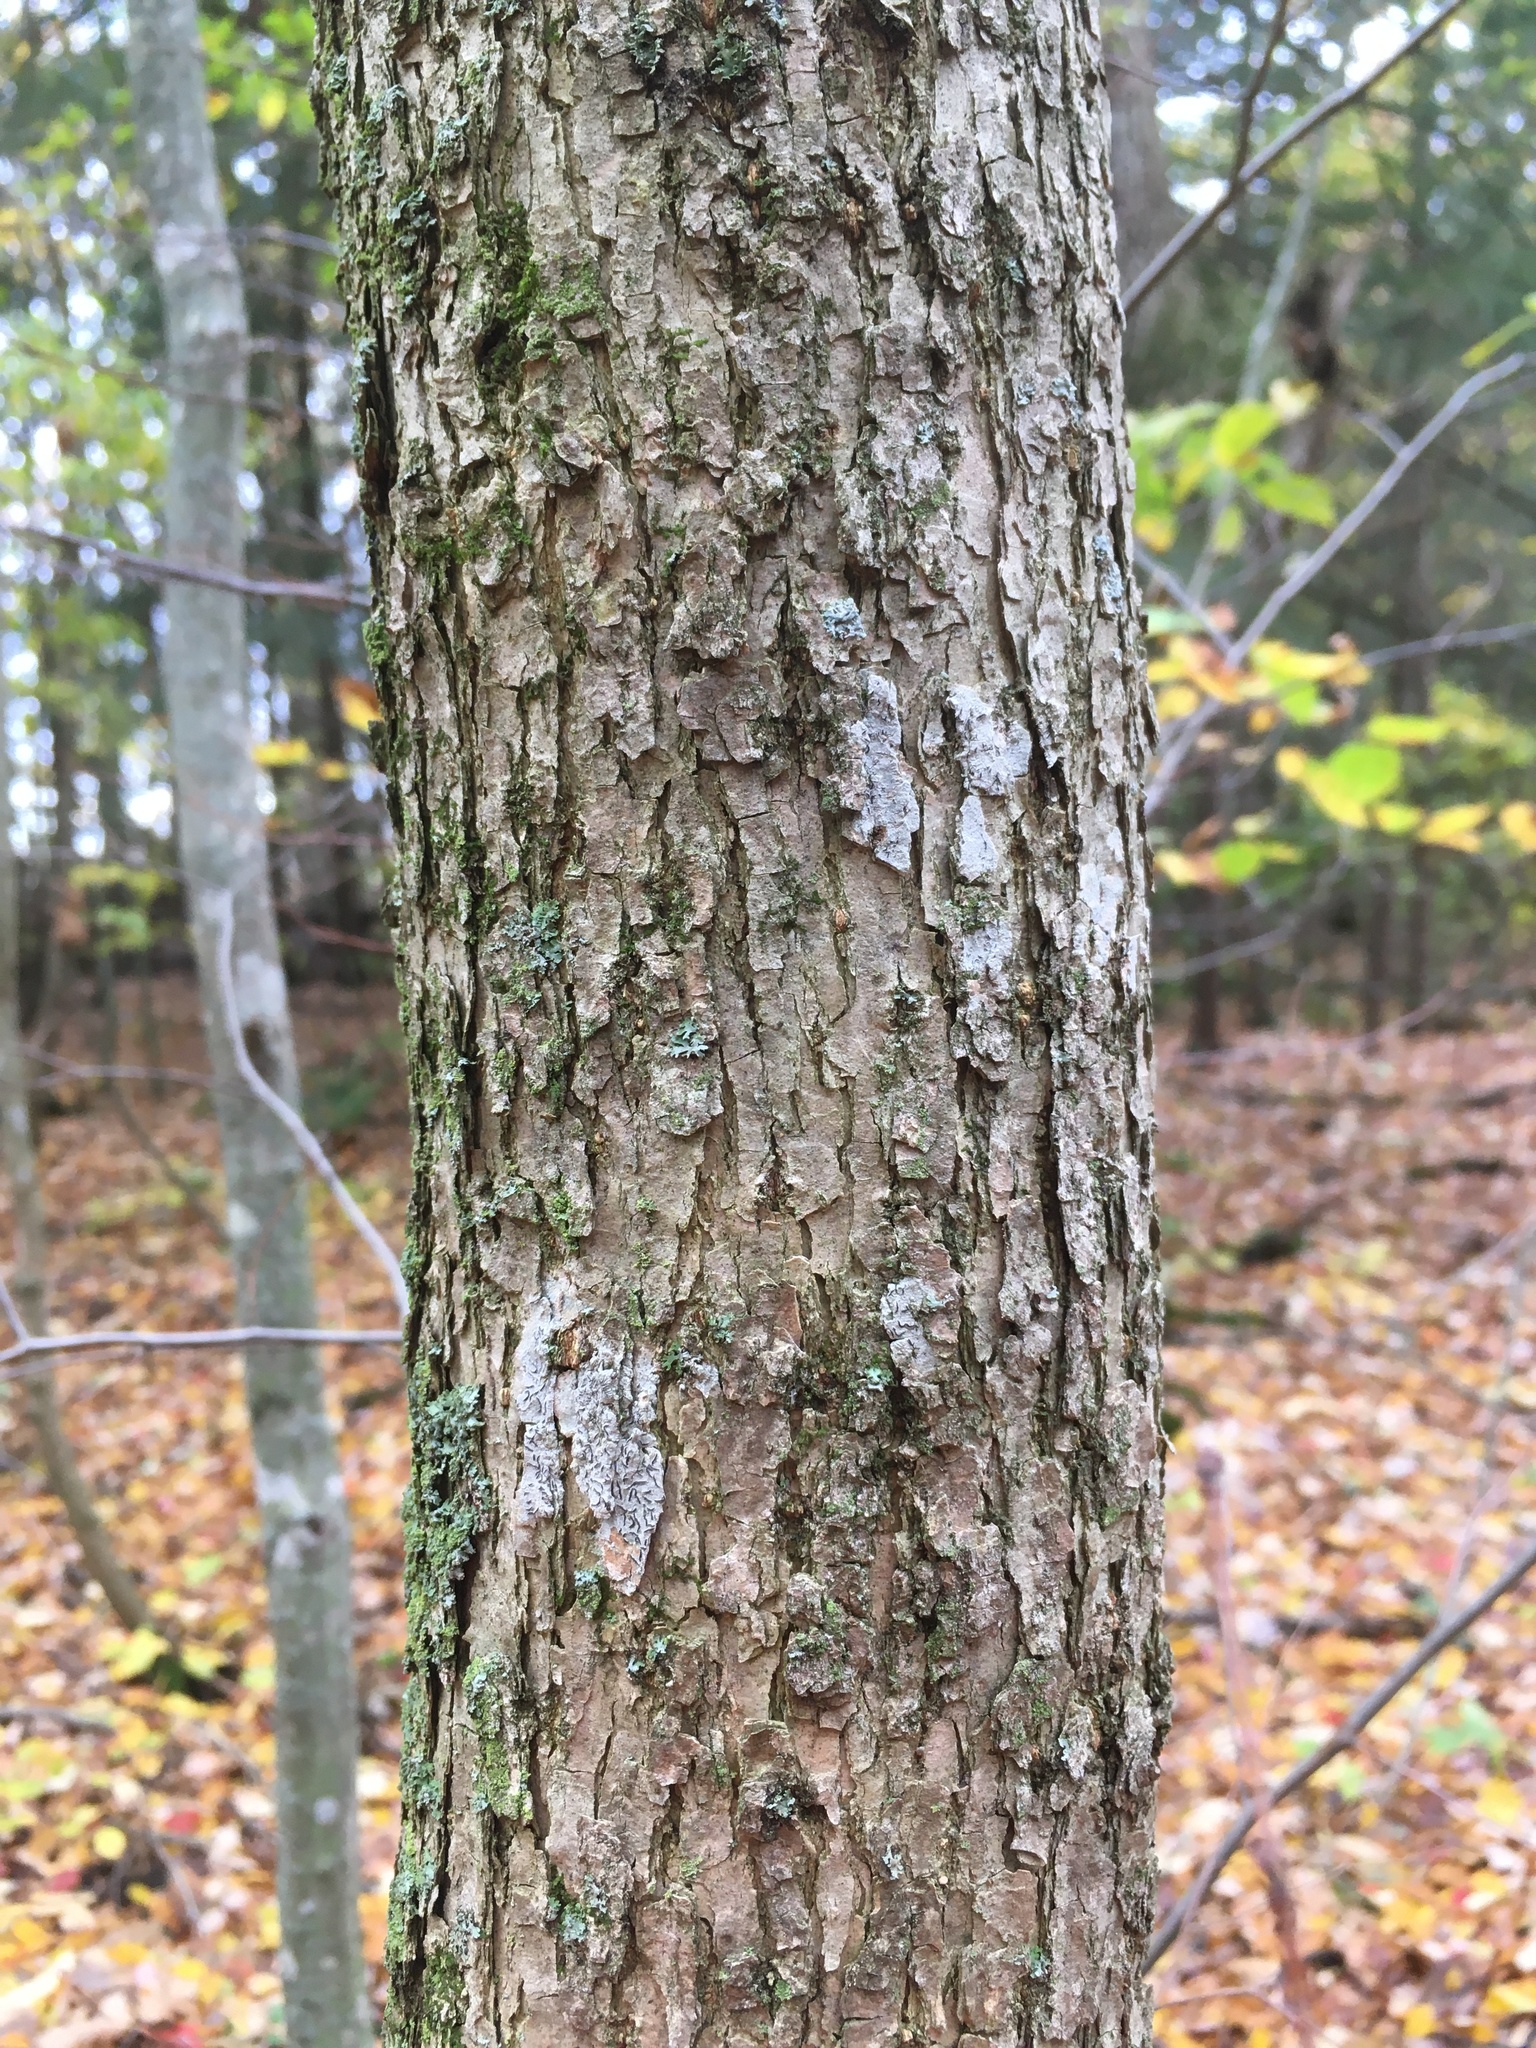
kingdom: Plantae
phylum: Tracheophyta
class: Magnoliopsida
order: Lamiales
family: Oleaceae
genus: Fraxinus
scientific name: Fraxinus nigra
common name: Black ash
